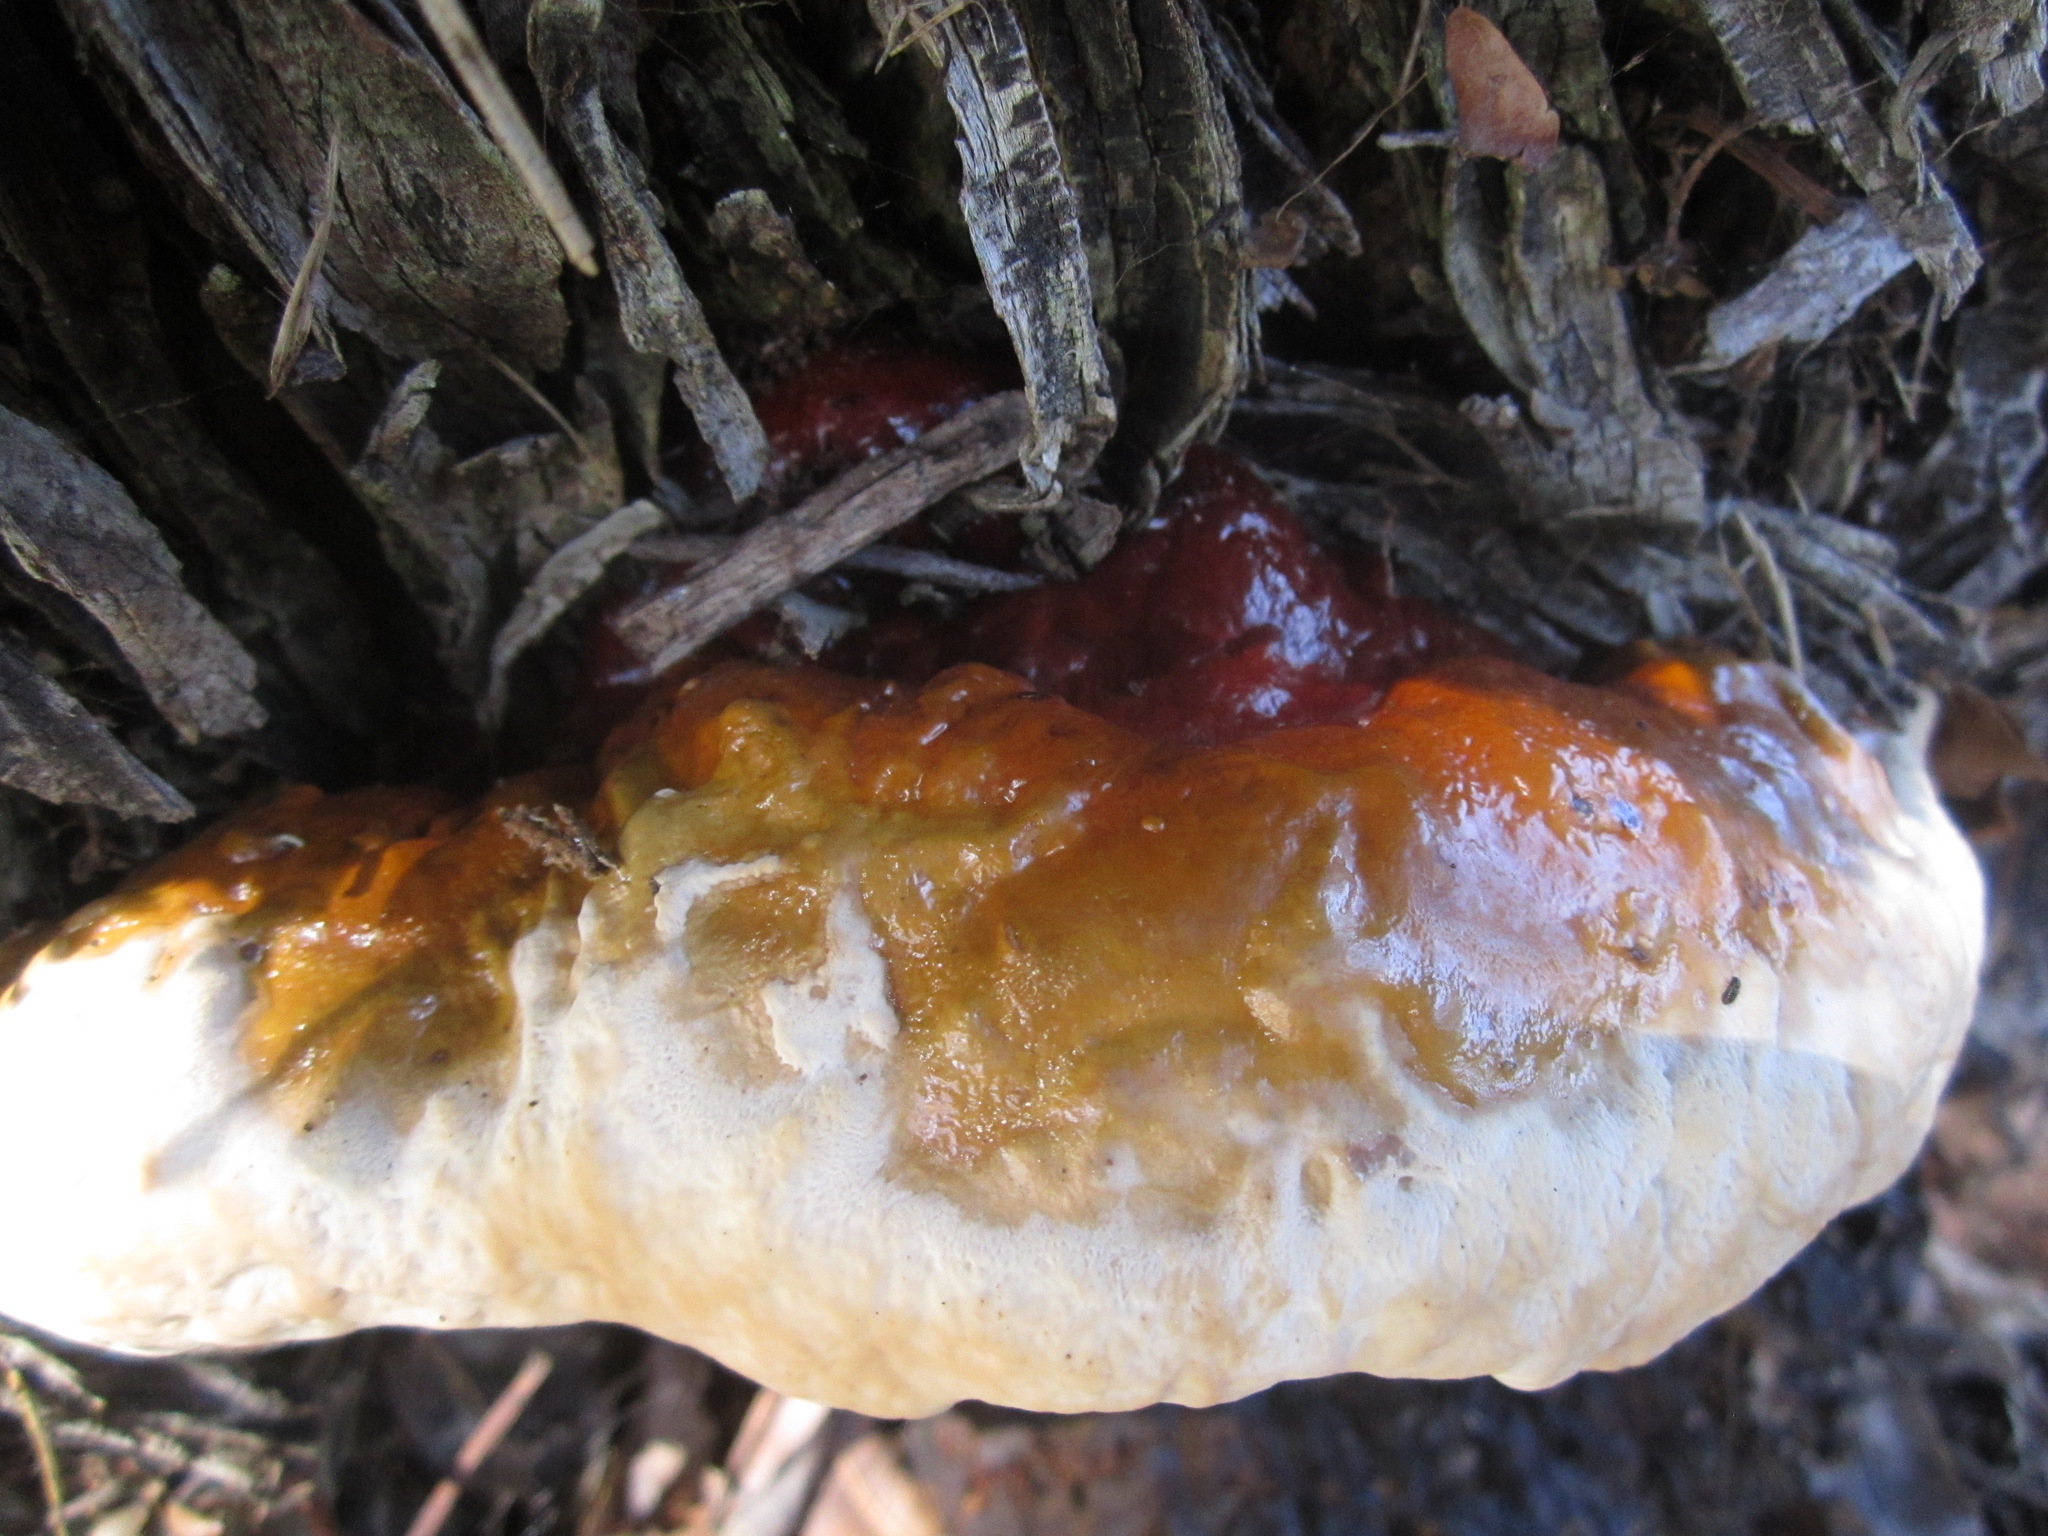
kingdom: Fungi
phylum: Basidiomycota
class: Agaricomycetes
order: Polyporales
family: Polyporaceae
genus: Ganoderma
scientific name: Ganoderma polychromum
